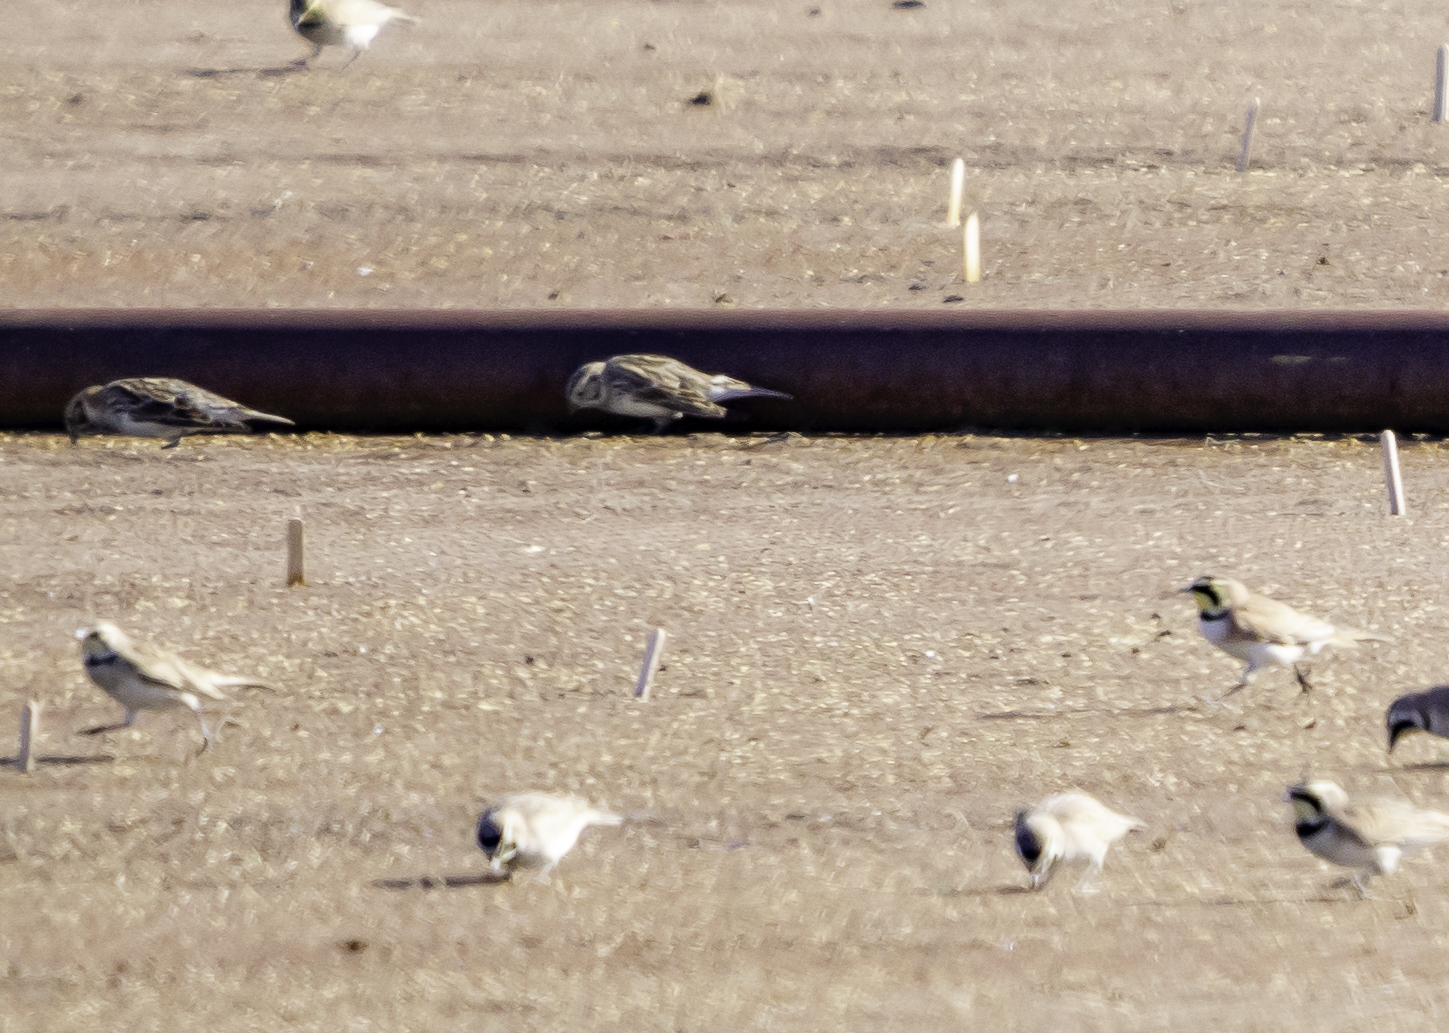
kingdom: Animalia
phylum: Chordata
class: Aves
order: Passeriformes
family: Calcariidae
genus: Calcarius
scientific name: Calcarius lapponicus
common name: Lapland longspur
